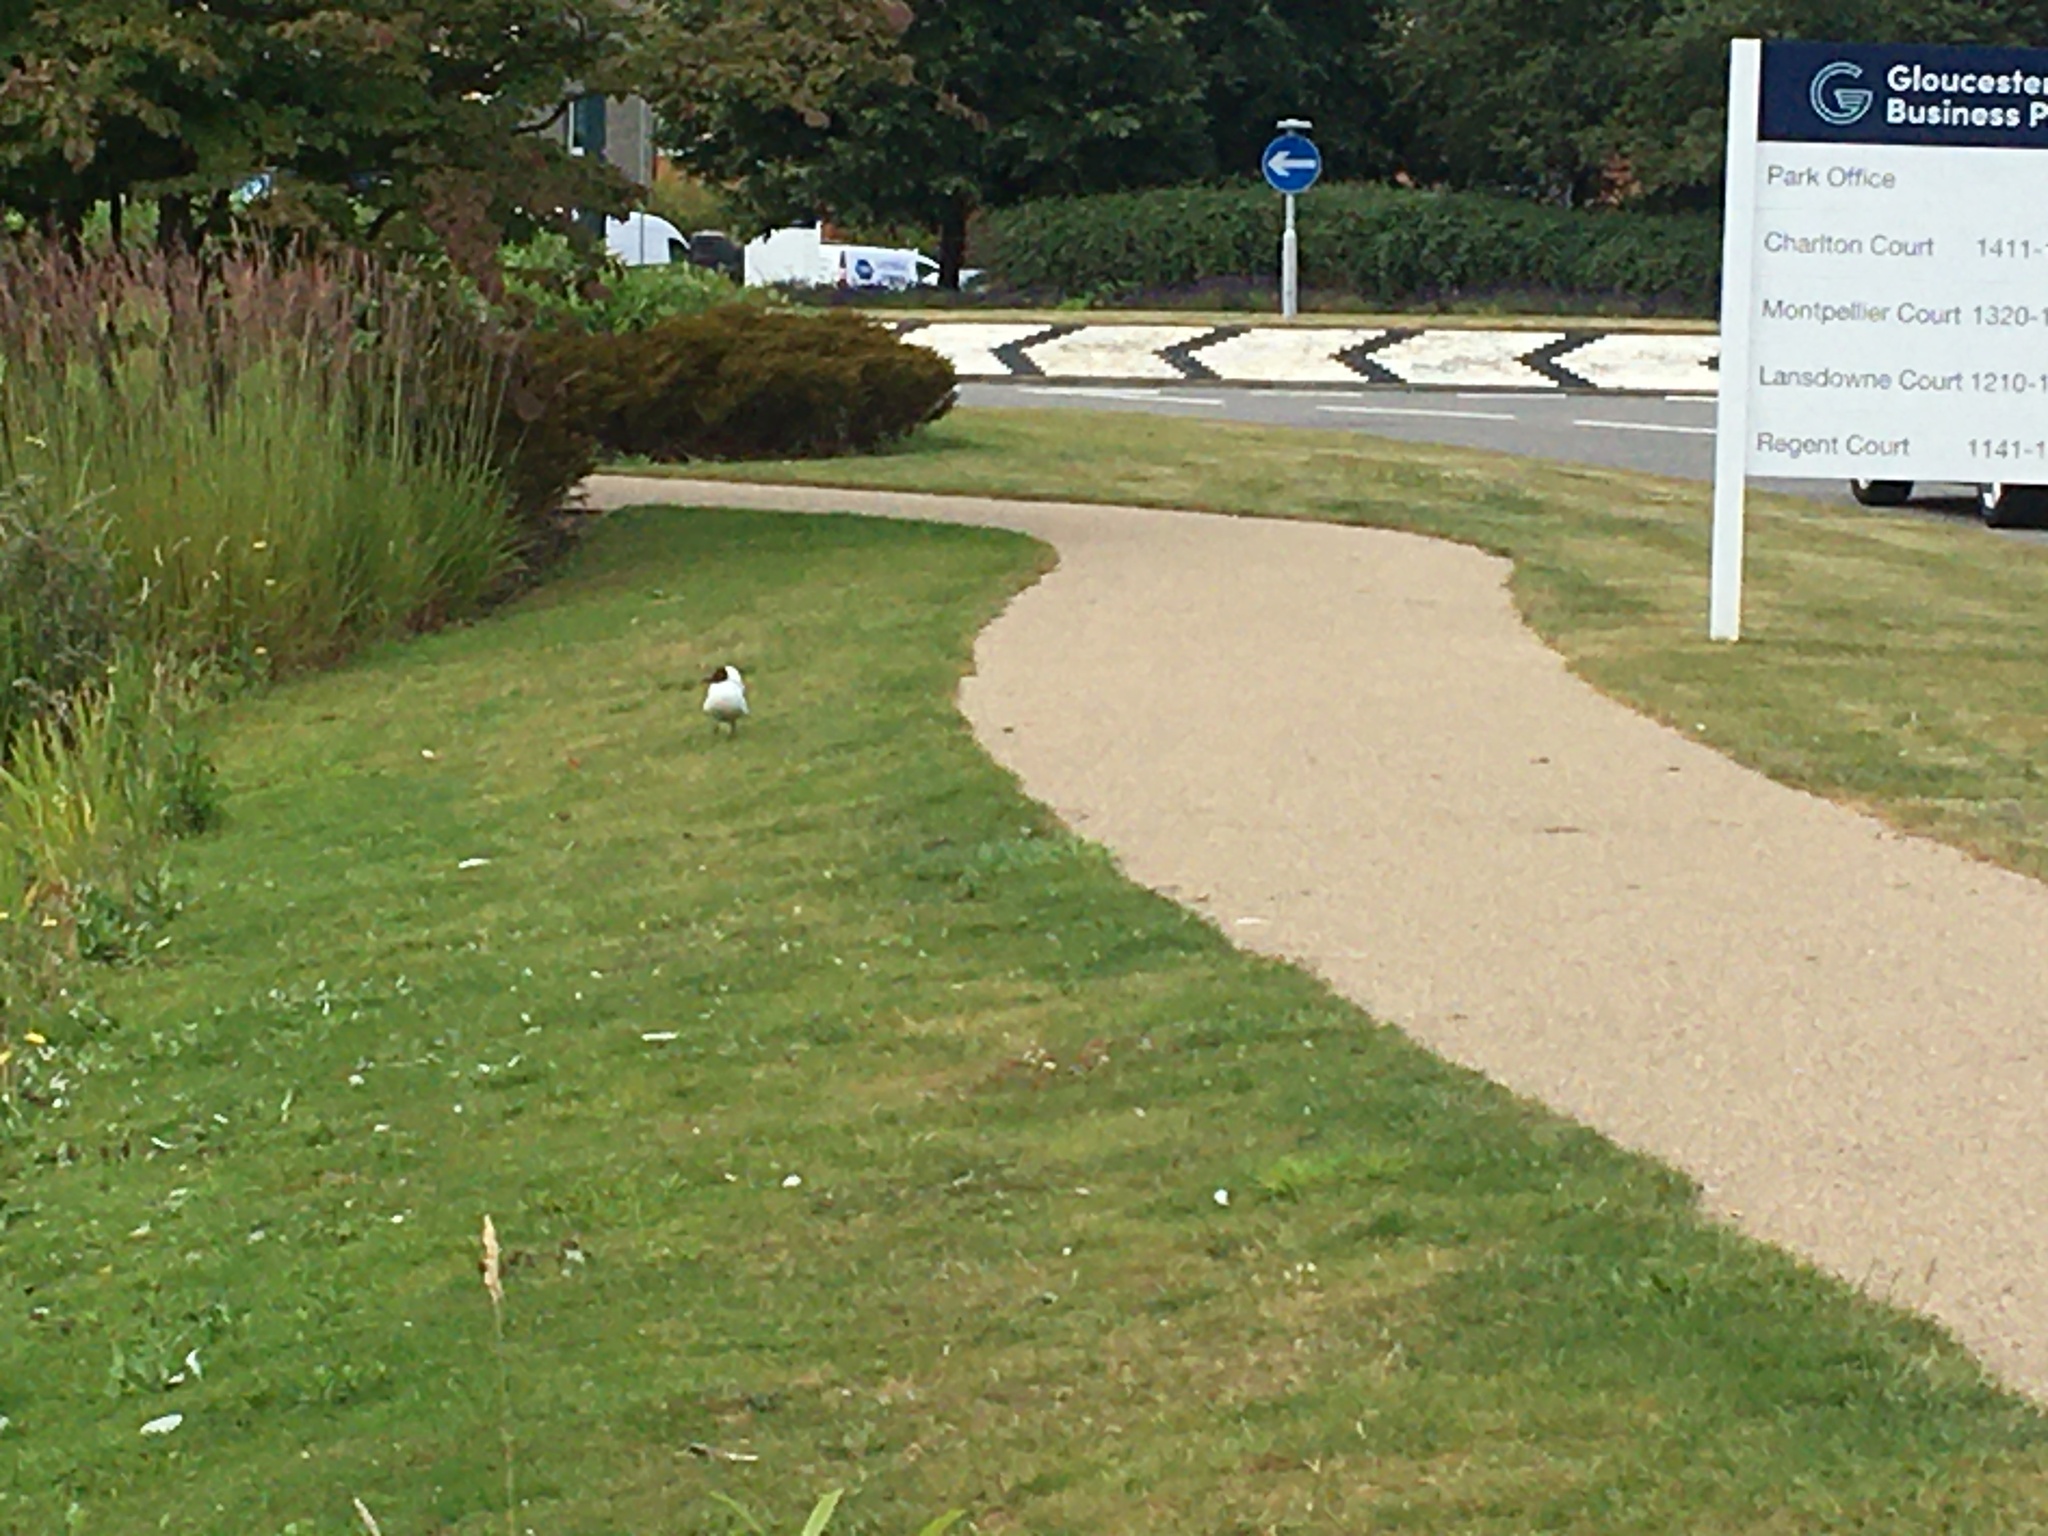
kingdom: Animalia
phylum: Chordata
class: Aves
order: Charadriiformes
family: Laridae
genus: Chroicocephalus
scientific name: Chroicocephalus ridibundus
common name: Black-headed gull
